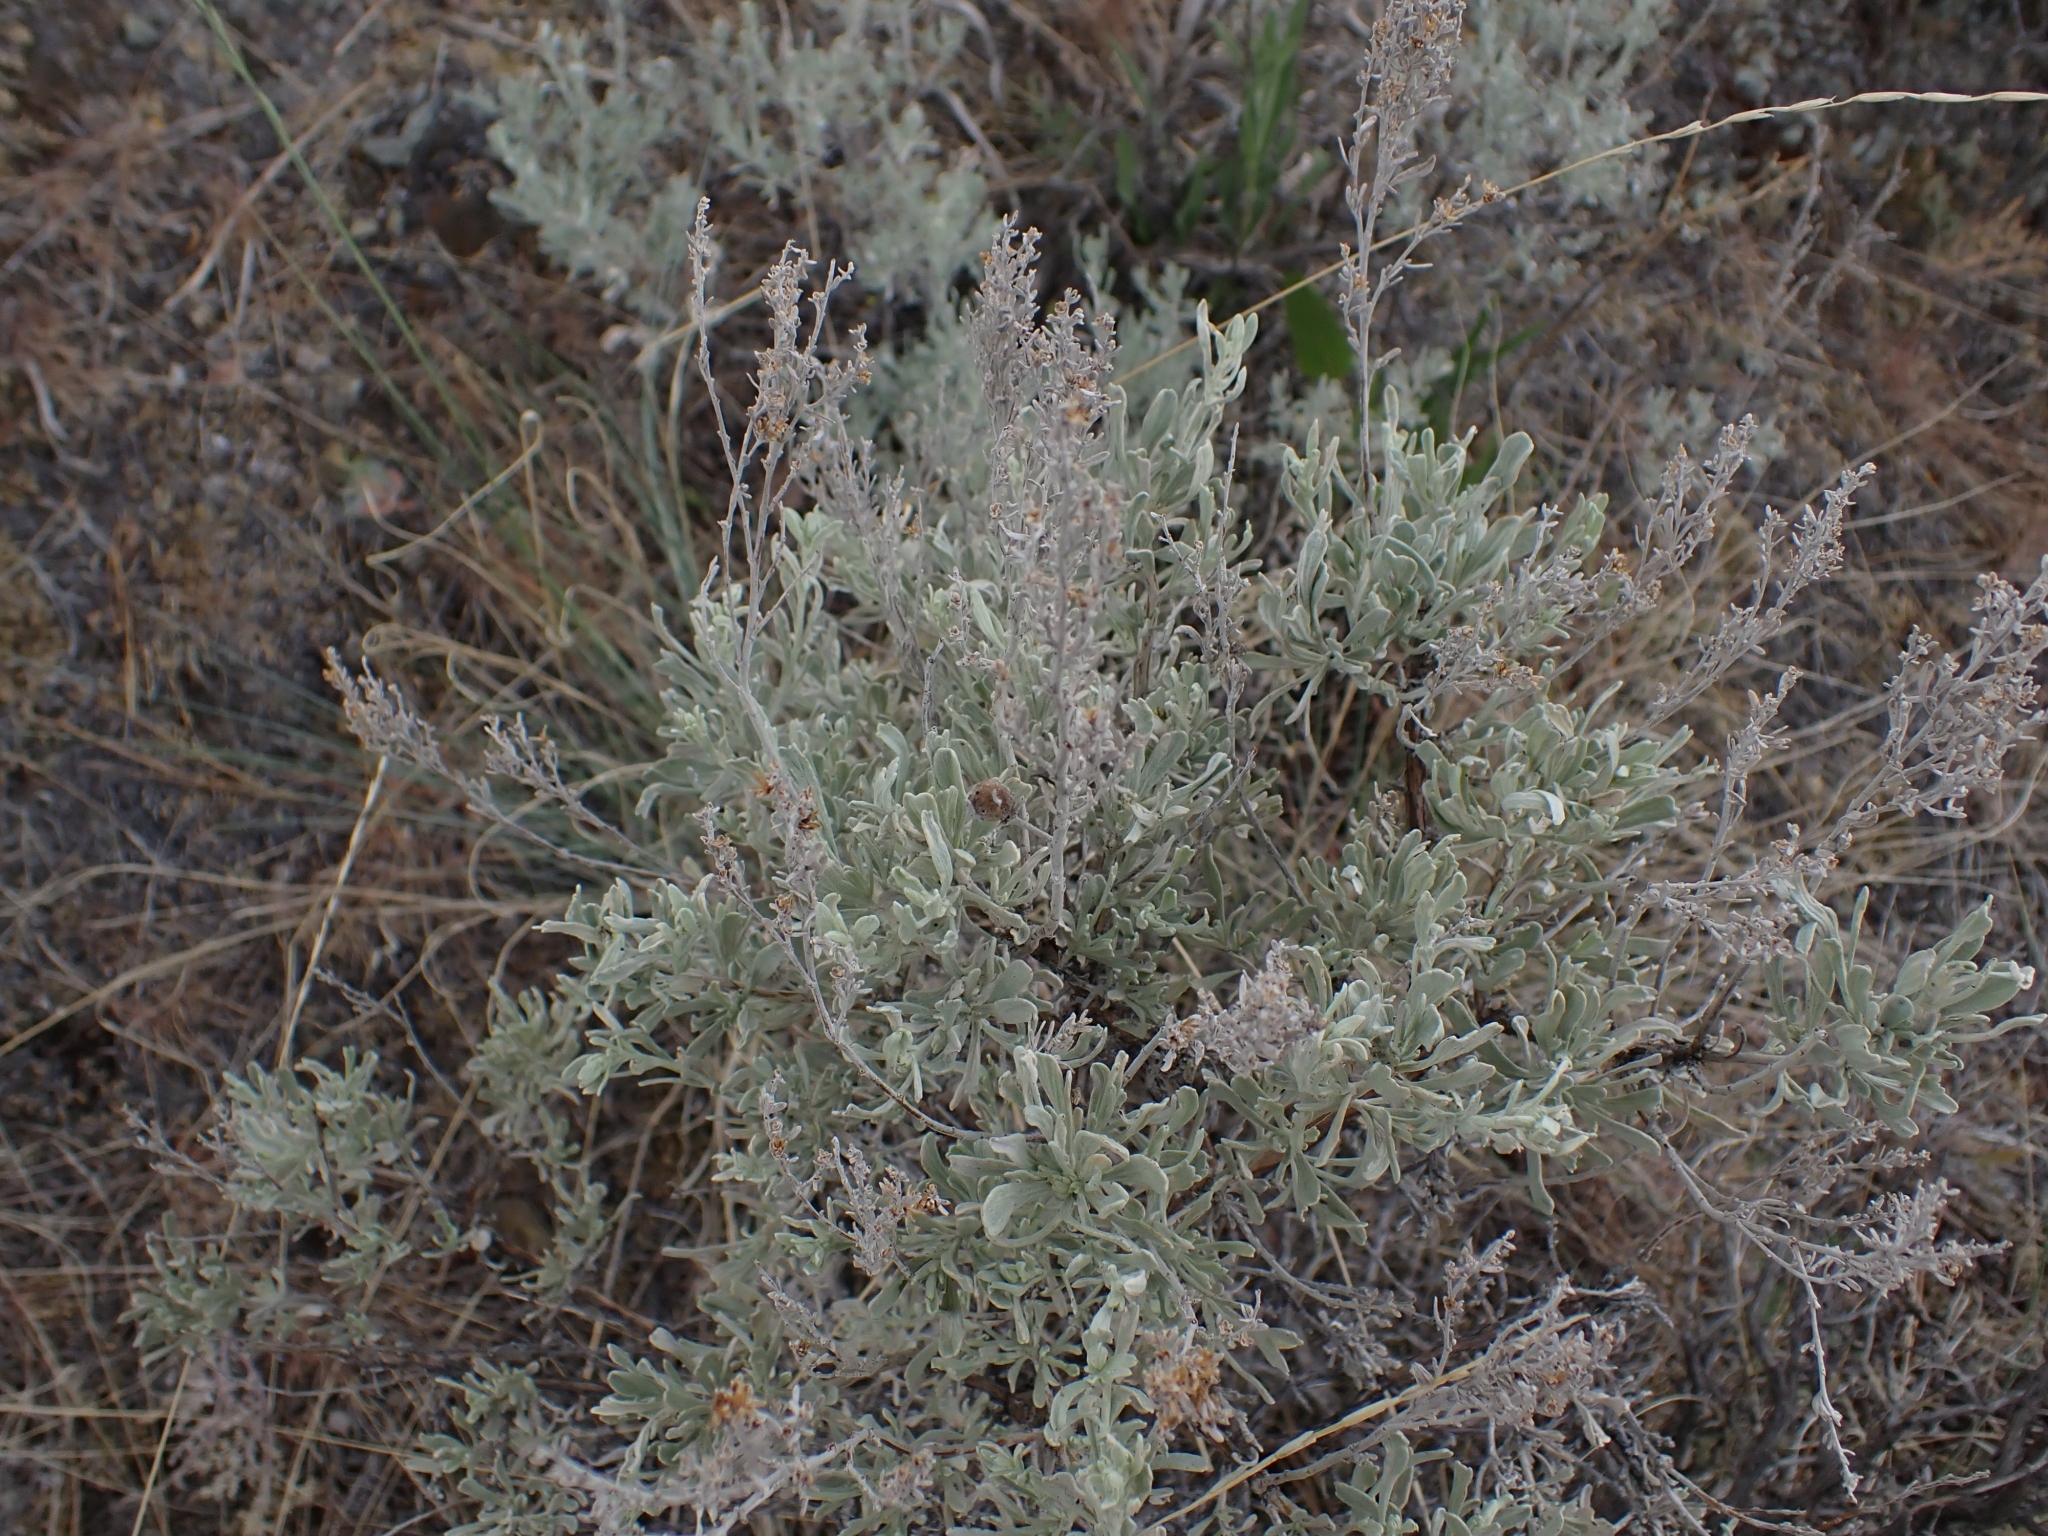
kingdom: Plantae
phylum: Tracheophyta
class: Magnoliopsida
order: Asterales
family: Asteraceae
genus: Artemisia
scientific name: Artemisia tridentata
